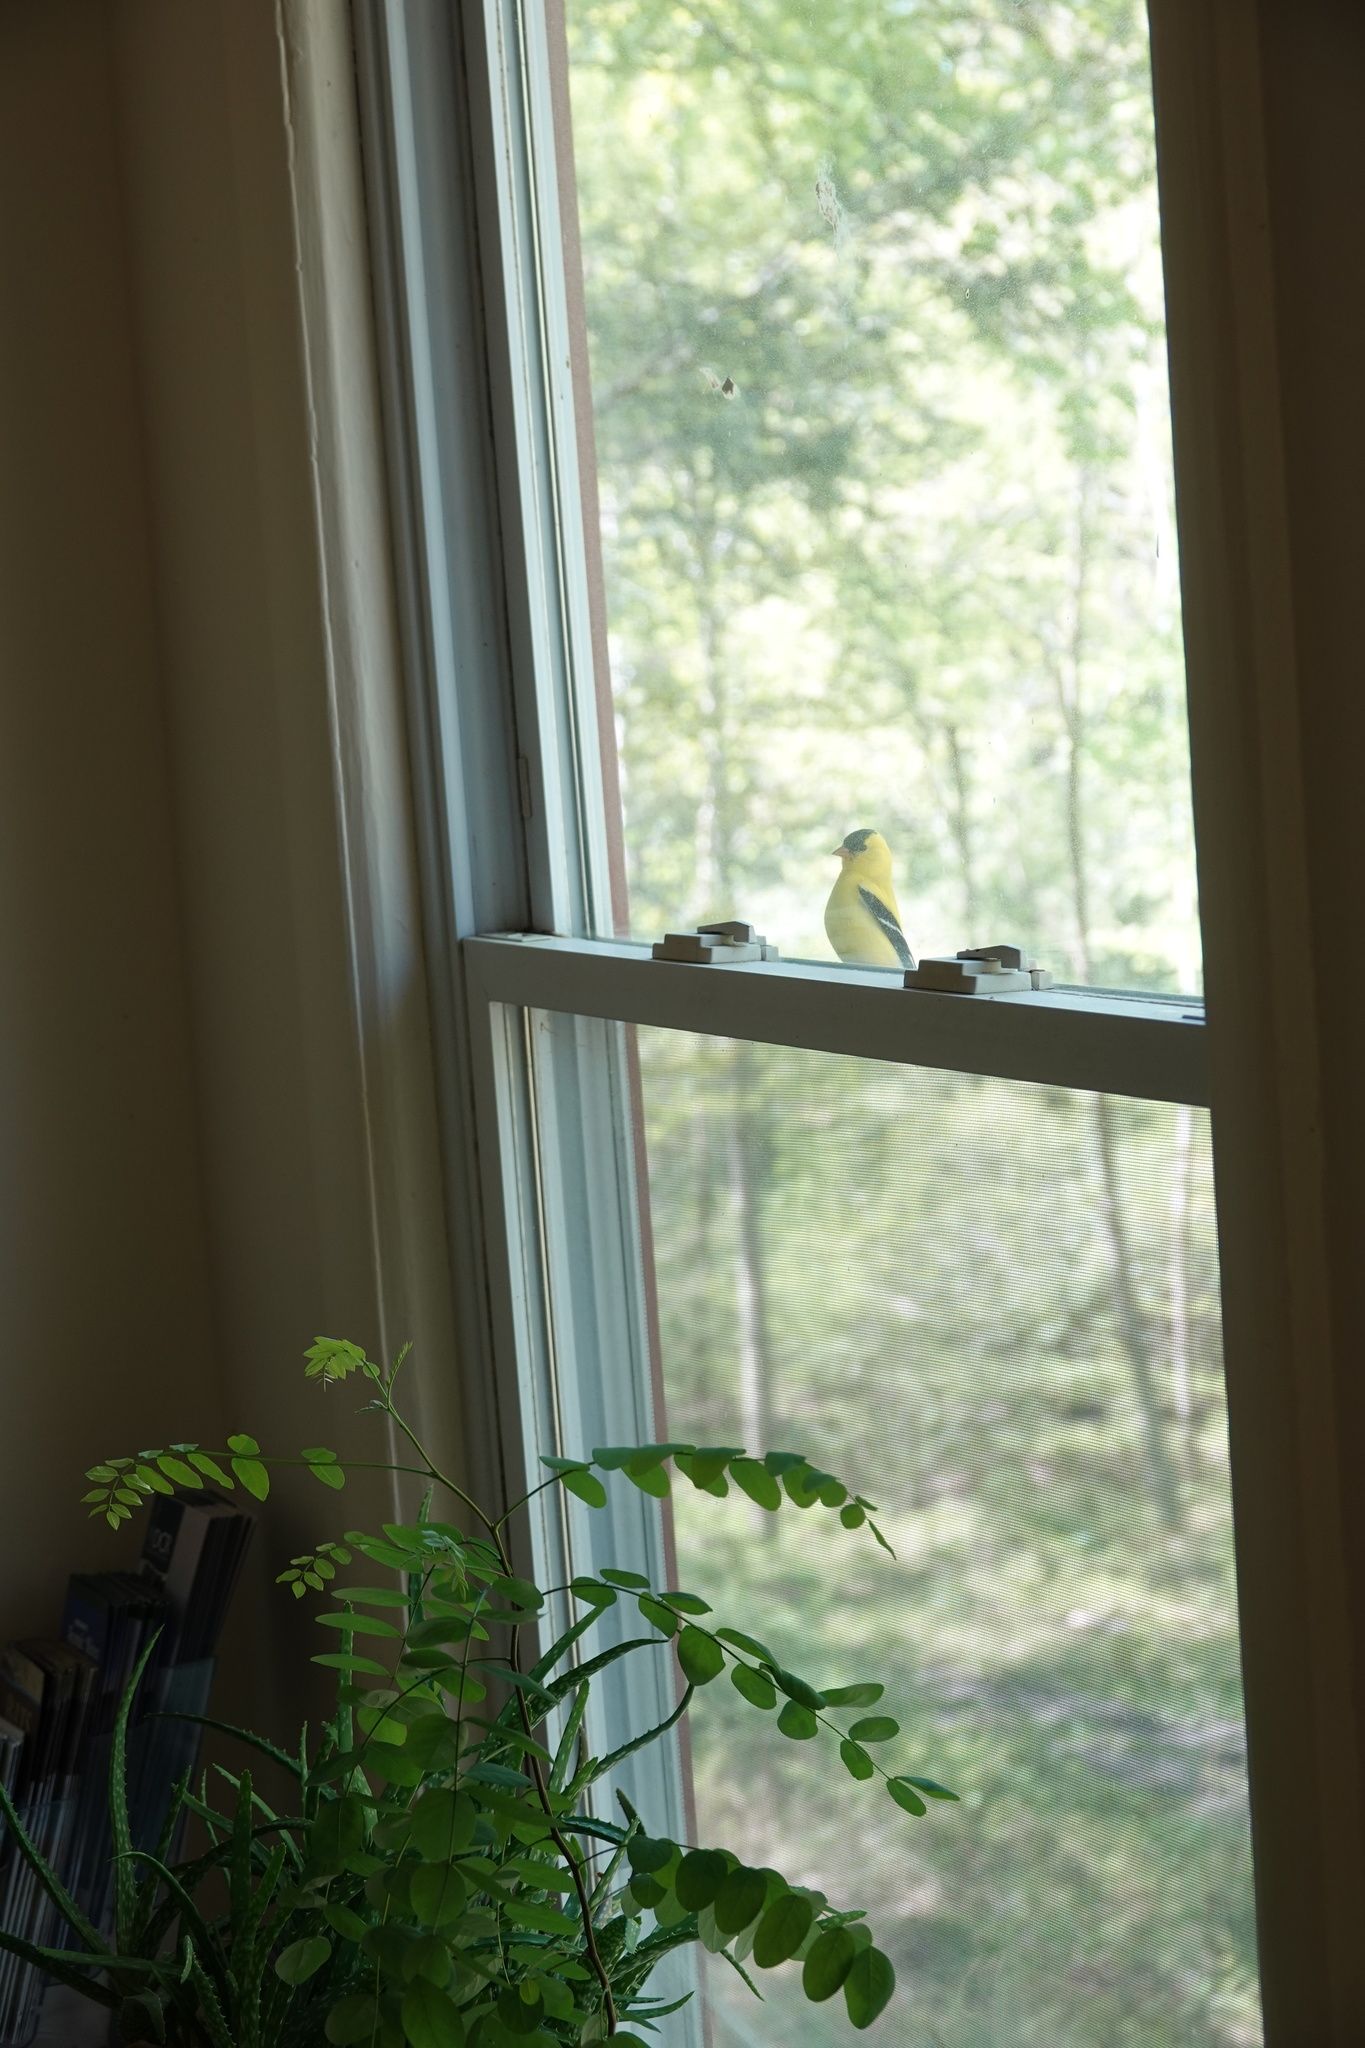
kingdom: Animalia
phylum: Chordata
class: Aves
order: Passeriformes
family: Fringillidae
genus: Spinus
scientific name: Spinus tristis
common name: American goldfinch
